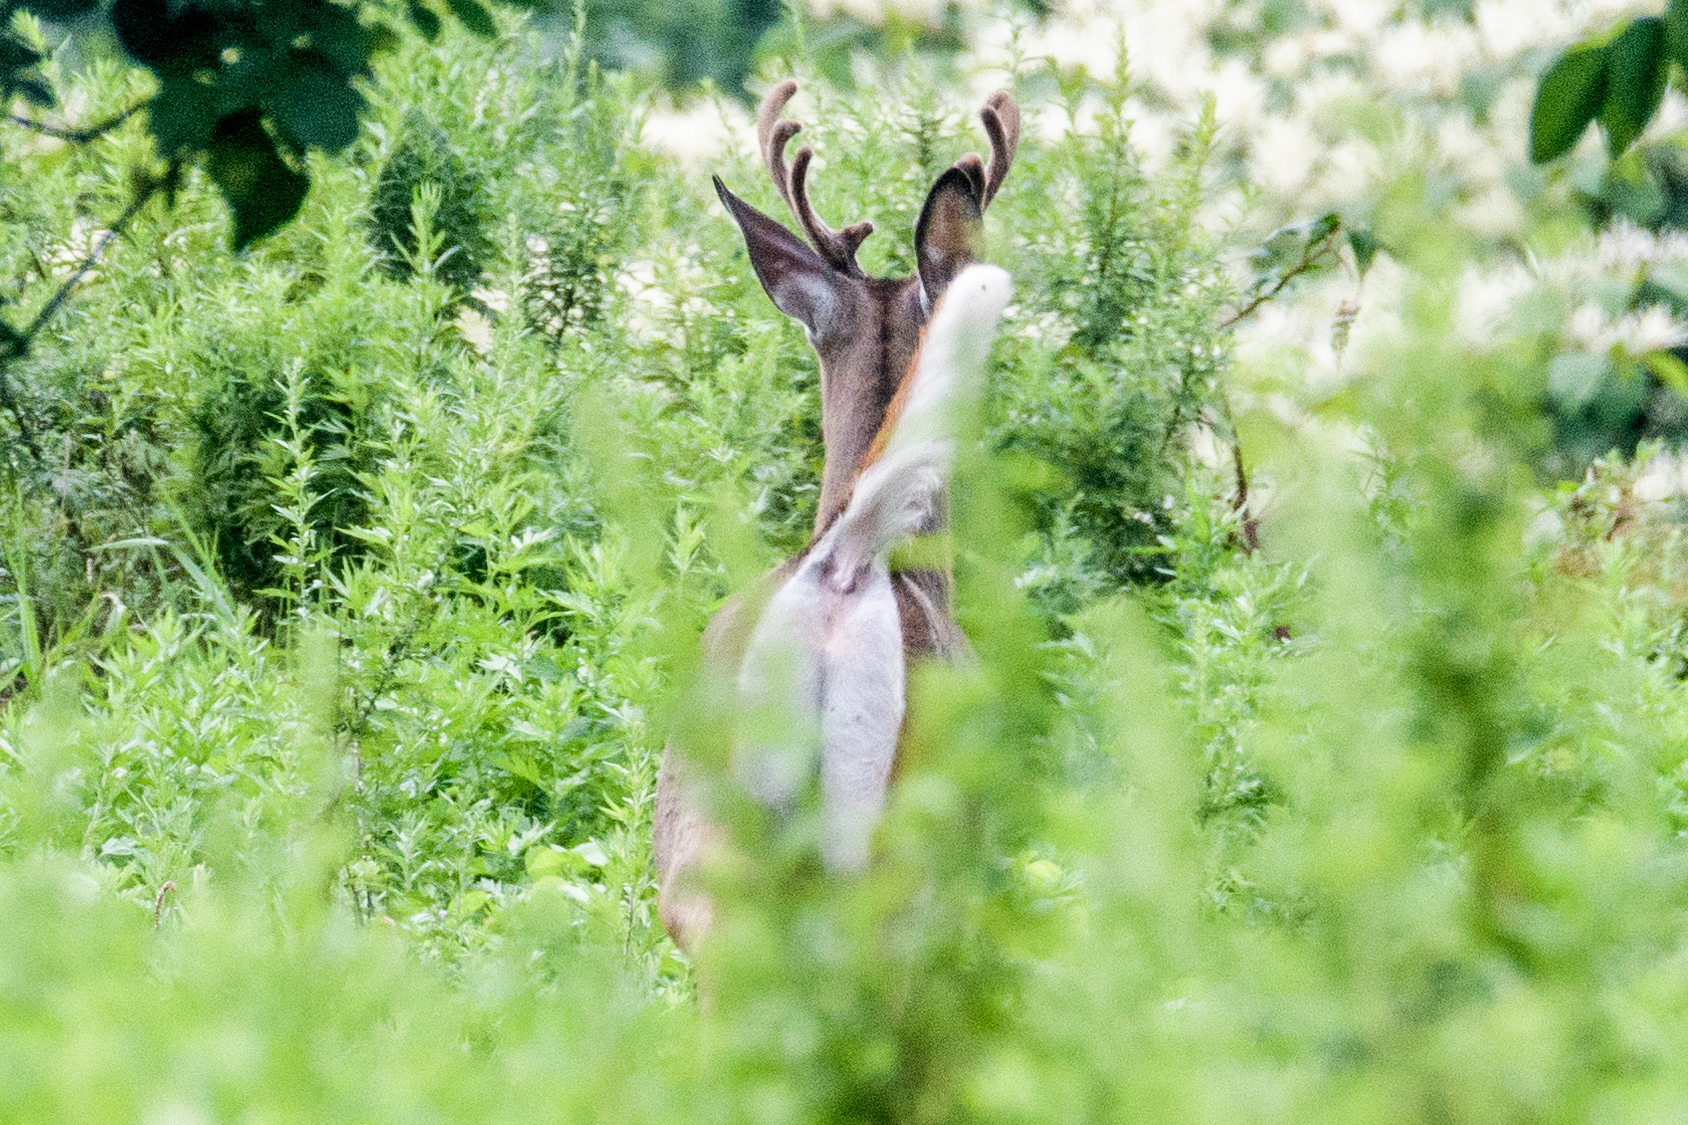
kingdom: Animalia
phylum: Chordata
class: Mammalia
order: Artiodactyla
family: Cervidae
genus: Odocoileus
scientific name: Odocoileus virginianus
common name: White-tailed deer
